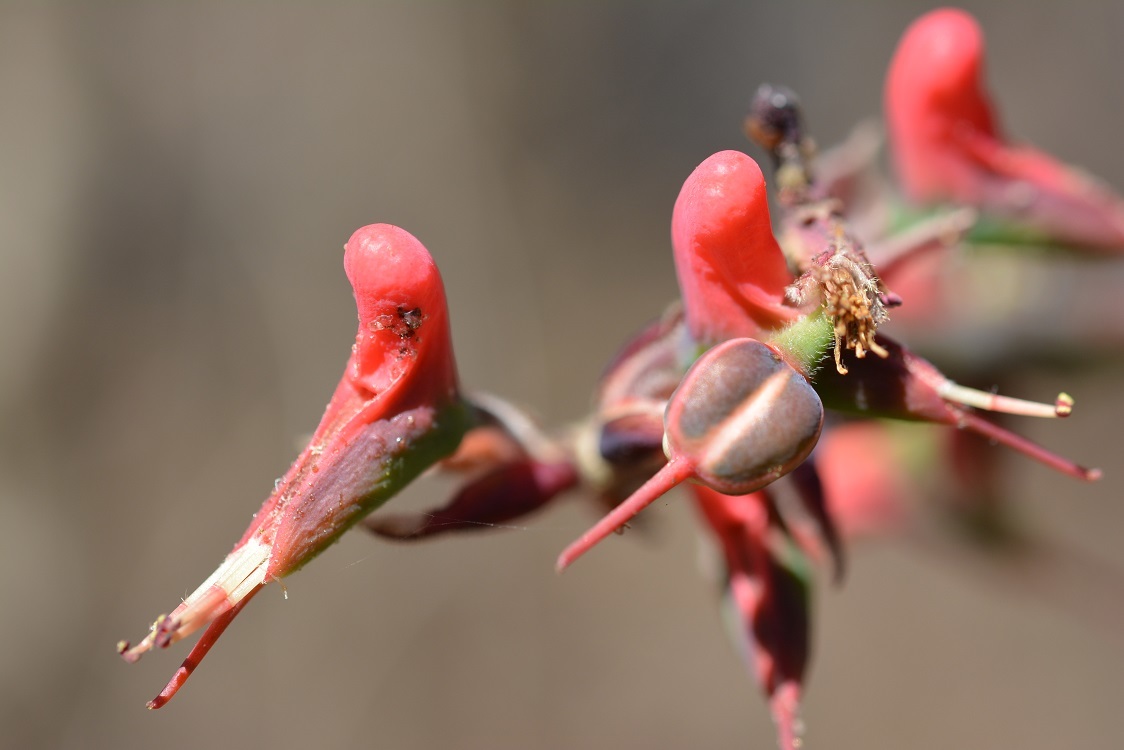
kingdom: Plantae
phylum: Tracheophyta
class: Magnoliopsida
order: Malpighiales
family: Euphorbiaceae
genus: Euphorbia
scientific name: Euphorbia calcarata
